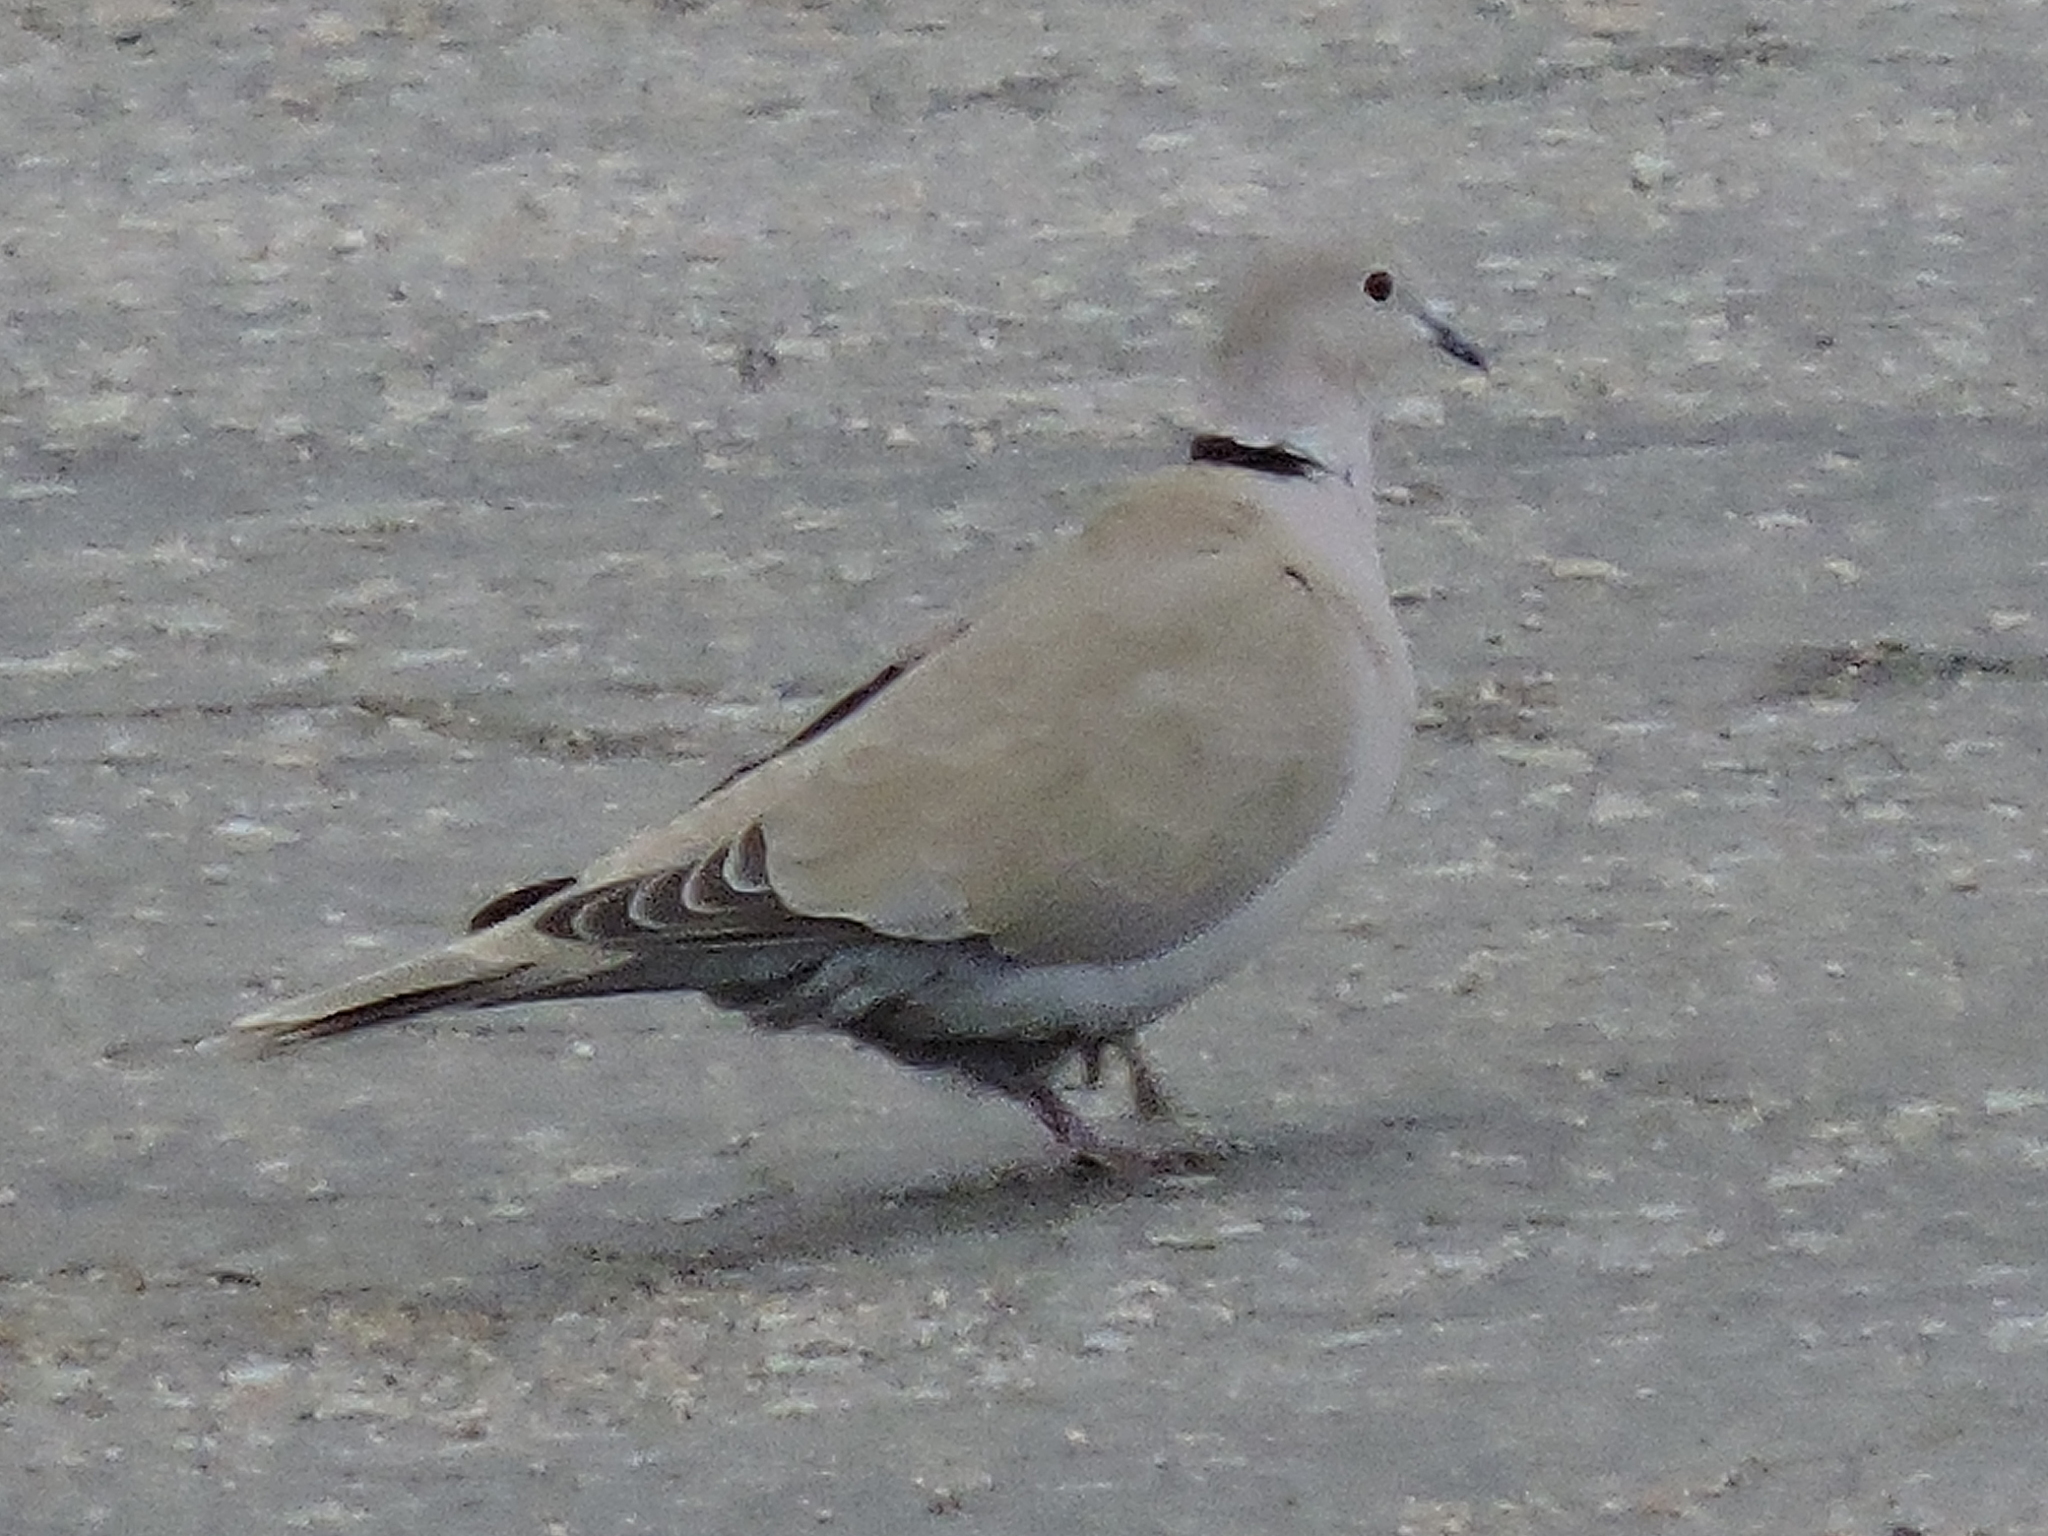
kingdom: Animalia
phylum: Chordata
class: Aves
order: Columbiformes
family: Columbidae
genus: Streptopelia
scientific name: Streptopelia decaocto
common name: Eurasian collared dove
